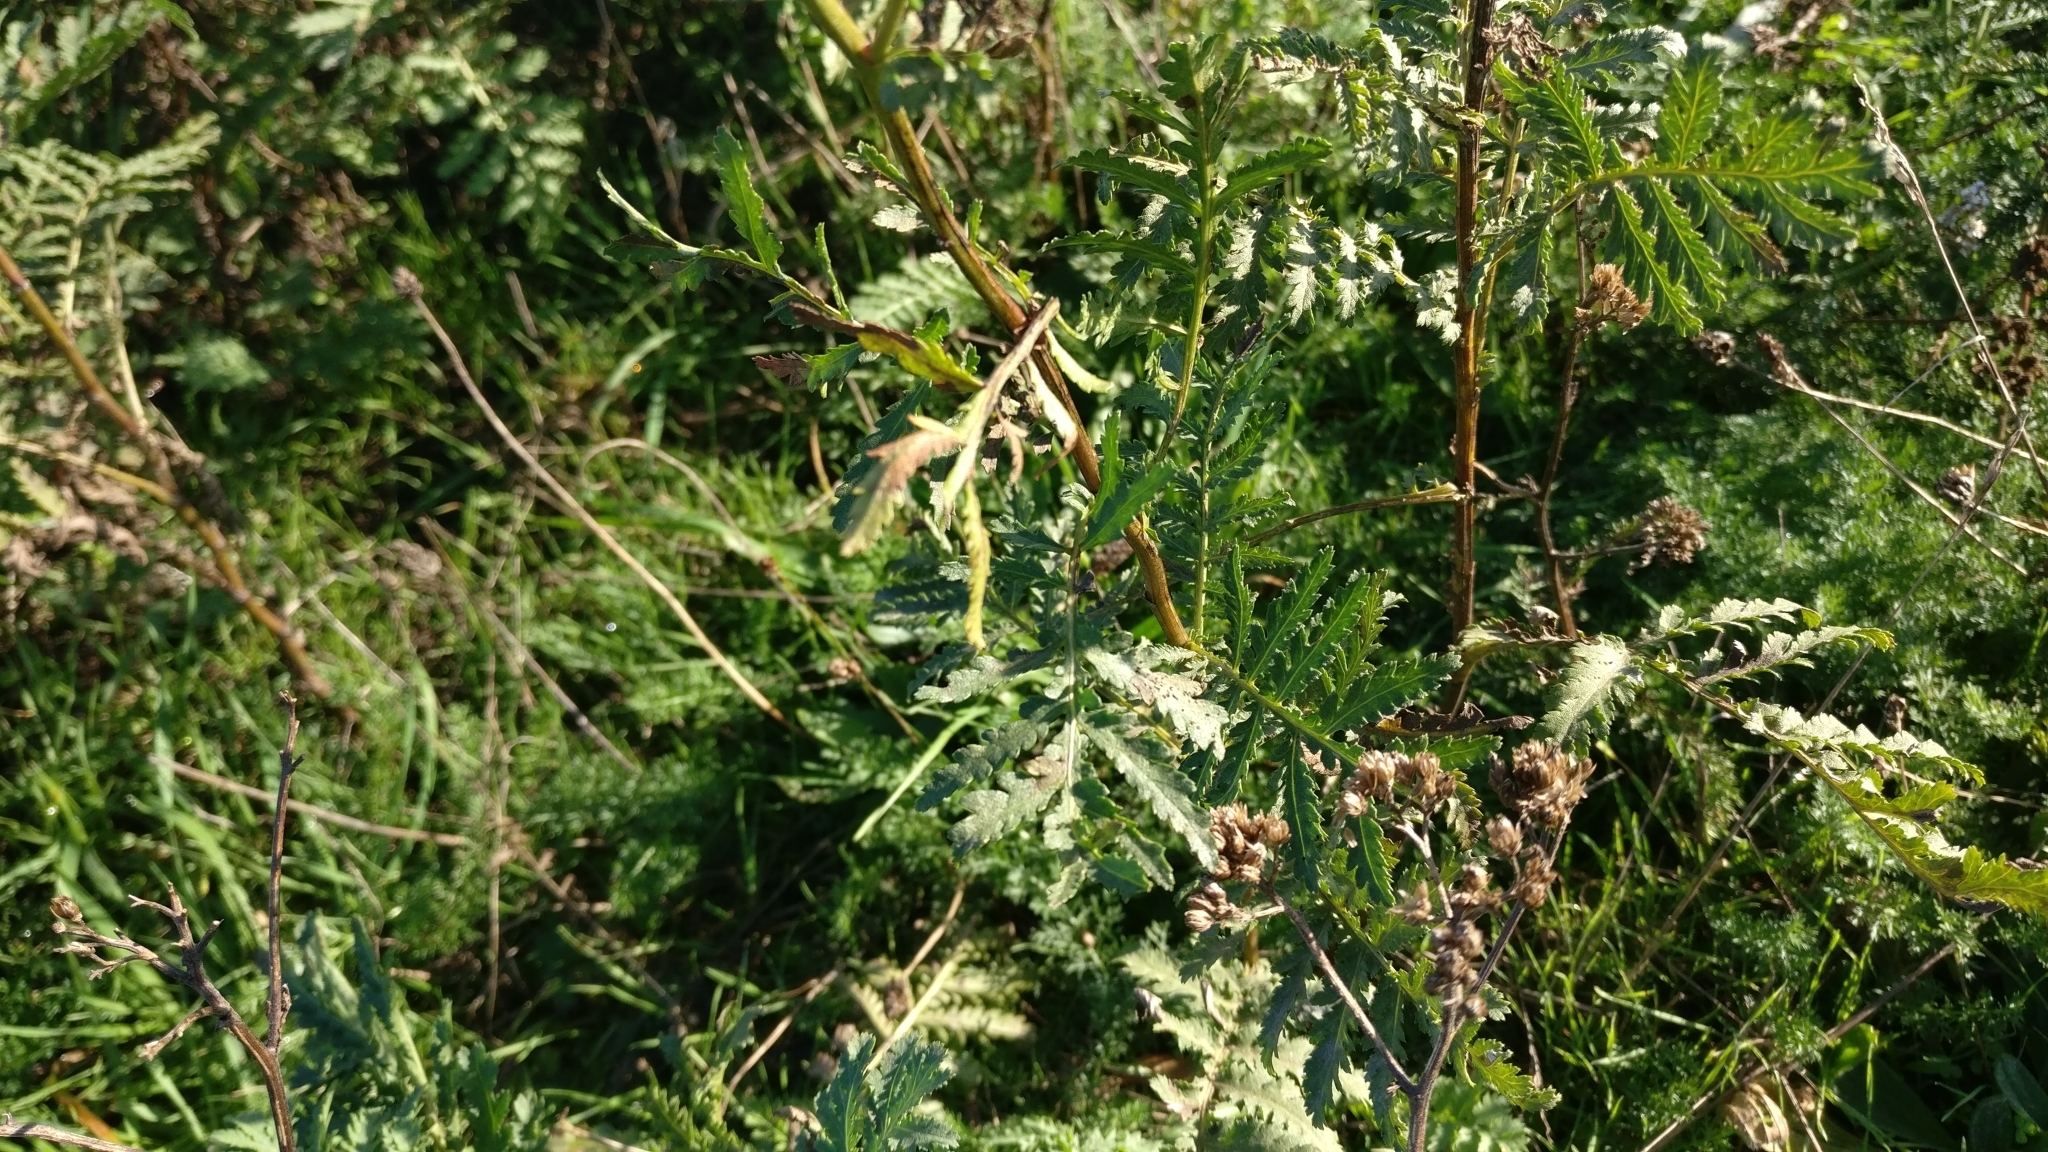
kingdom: Plantae
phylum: Tracheophyta
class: Magnoliopsida
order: Asterales
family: Asteraceae
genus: Tanacetum
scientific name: Tanacetum vulgare
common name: Common tansy
